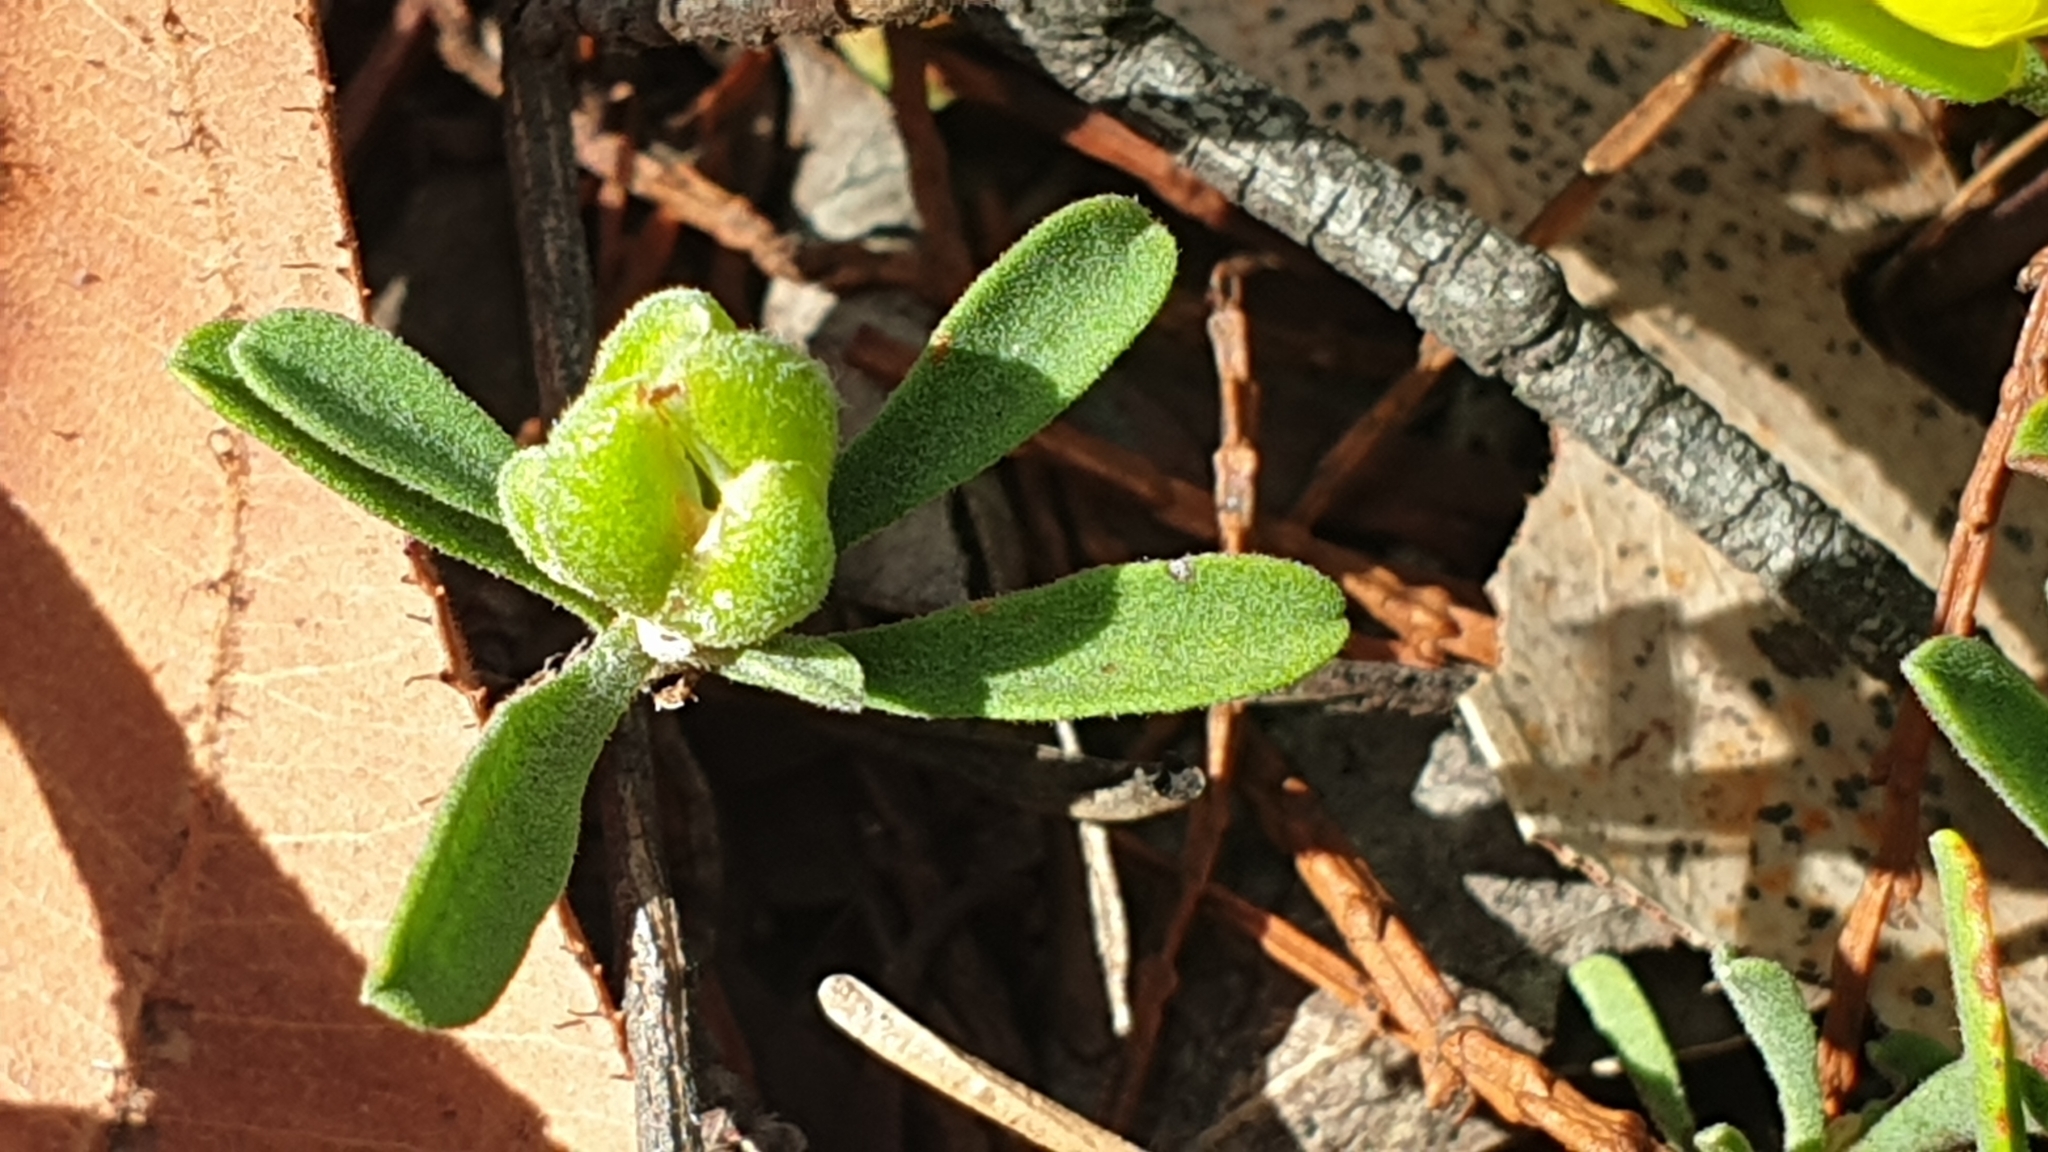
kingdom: Plantae
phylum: Tracheophyta
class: Magnoliopsida
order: Dilleniales
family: Dilleniaceae
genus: Hibbertia
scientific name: Hibbertia obtusifolia
